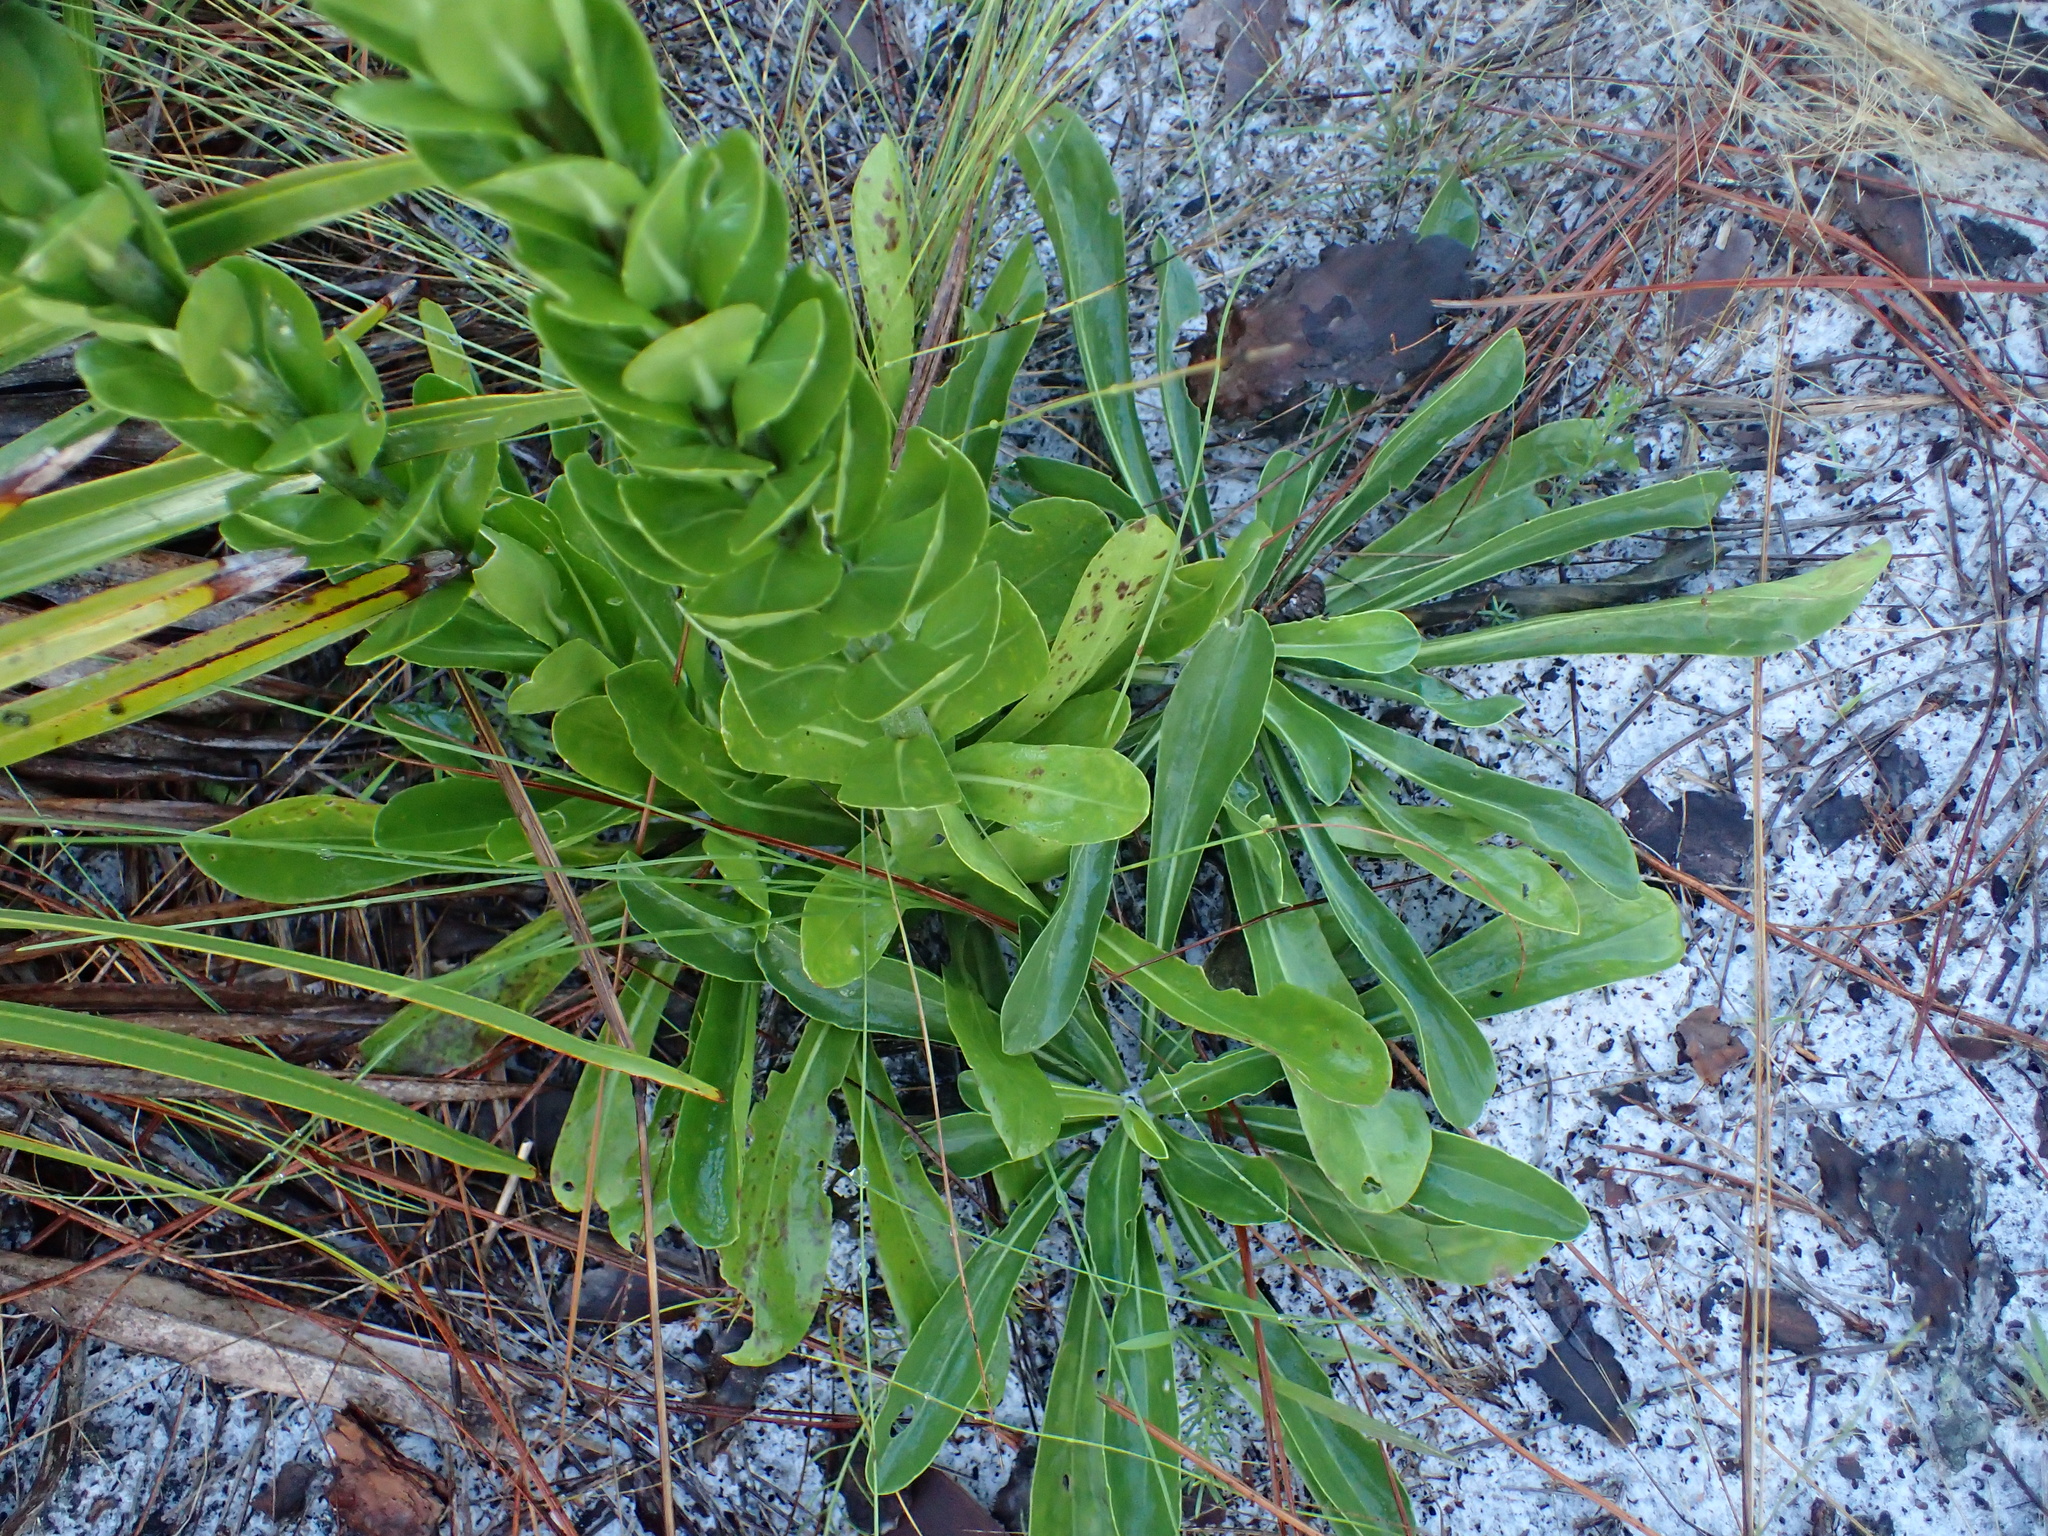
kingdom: Plantae
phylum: Tracheophyta
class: Magnoliopsida
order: Asterales
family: Asteraceae
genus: Carphephorus
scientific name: Carphephorus corymbosus
